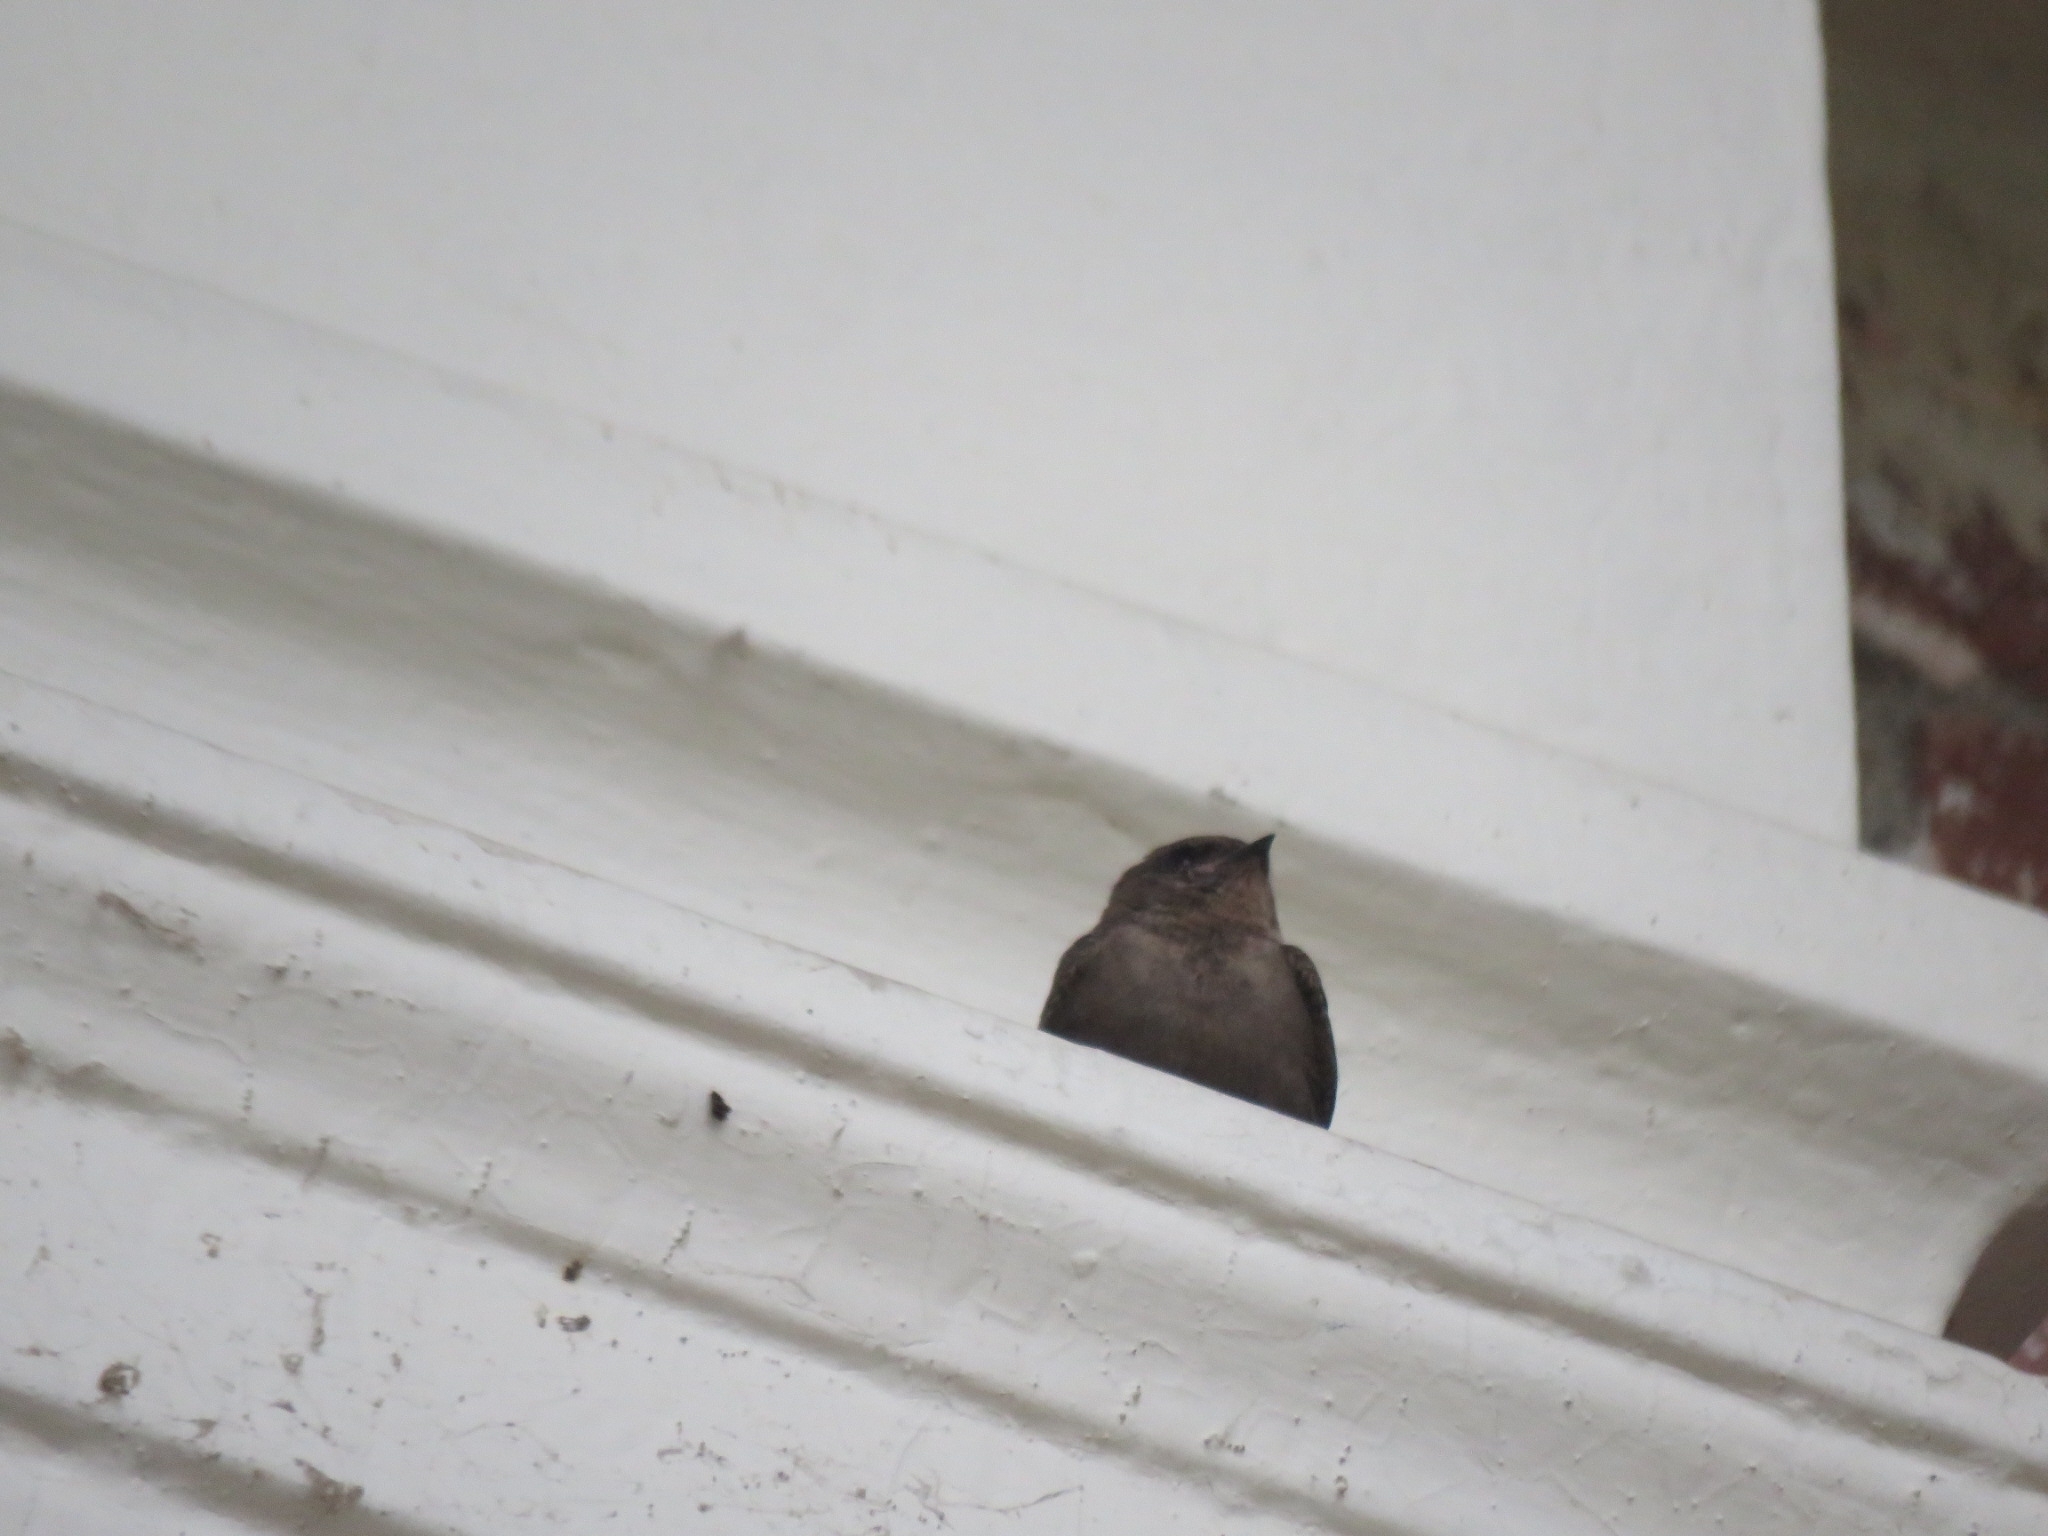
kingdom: Animalia
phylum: Chordata
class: Aves
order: Passeriformes
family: Hirundinidae
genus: Ptyonoprogne
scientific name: Ptyonoprogne concolor
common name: Dusky crag-martin
